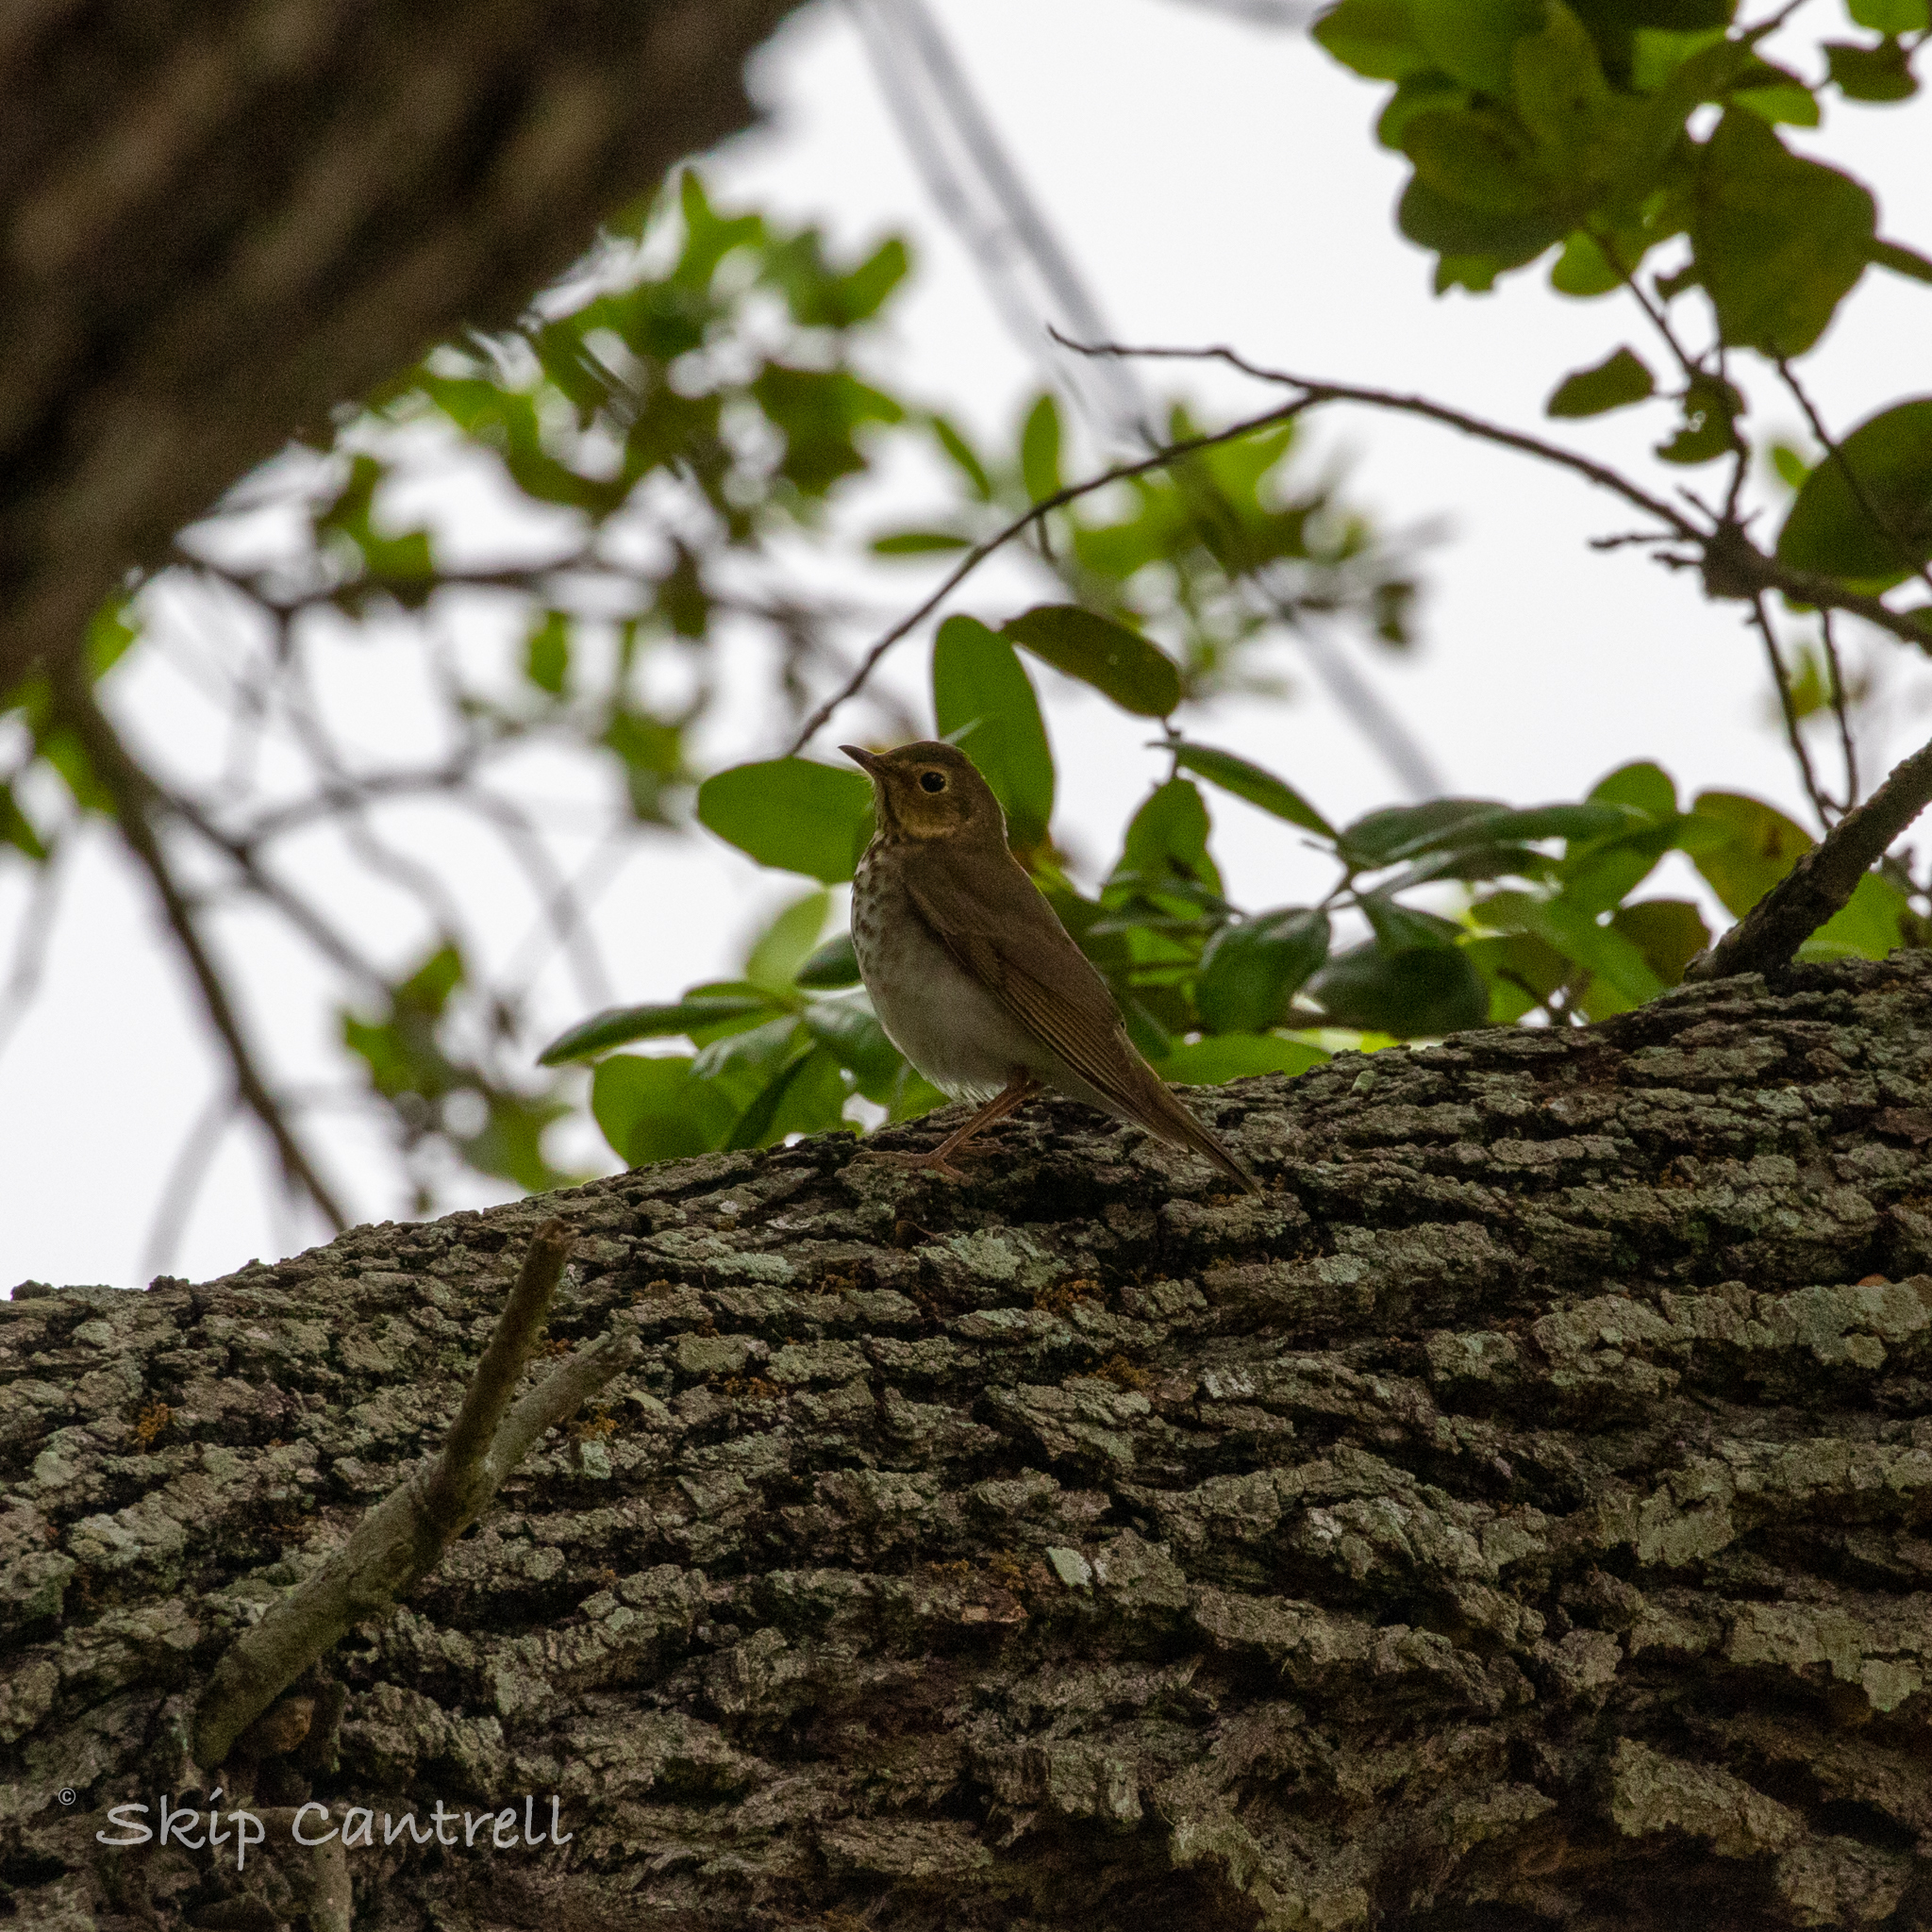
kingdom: Animalia
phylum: Chordata
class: Aves
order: Passeriformes
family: Turdidae
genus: Catharus
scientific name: Catharus ustulatus
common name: Swainson's thrush
